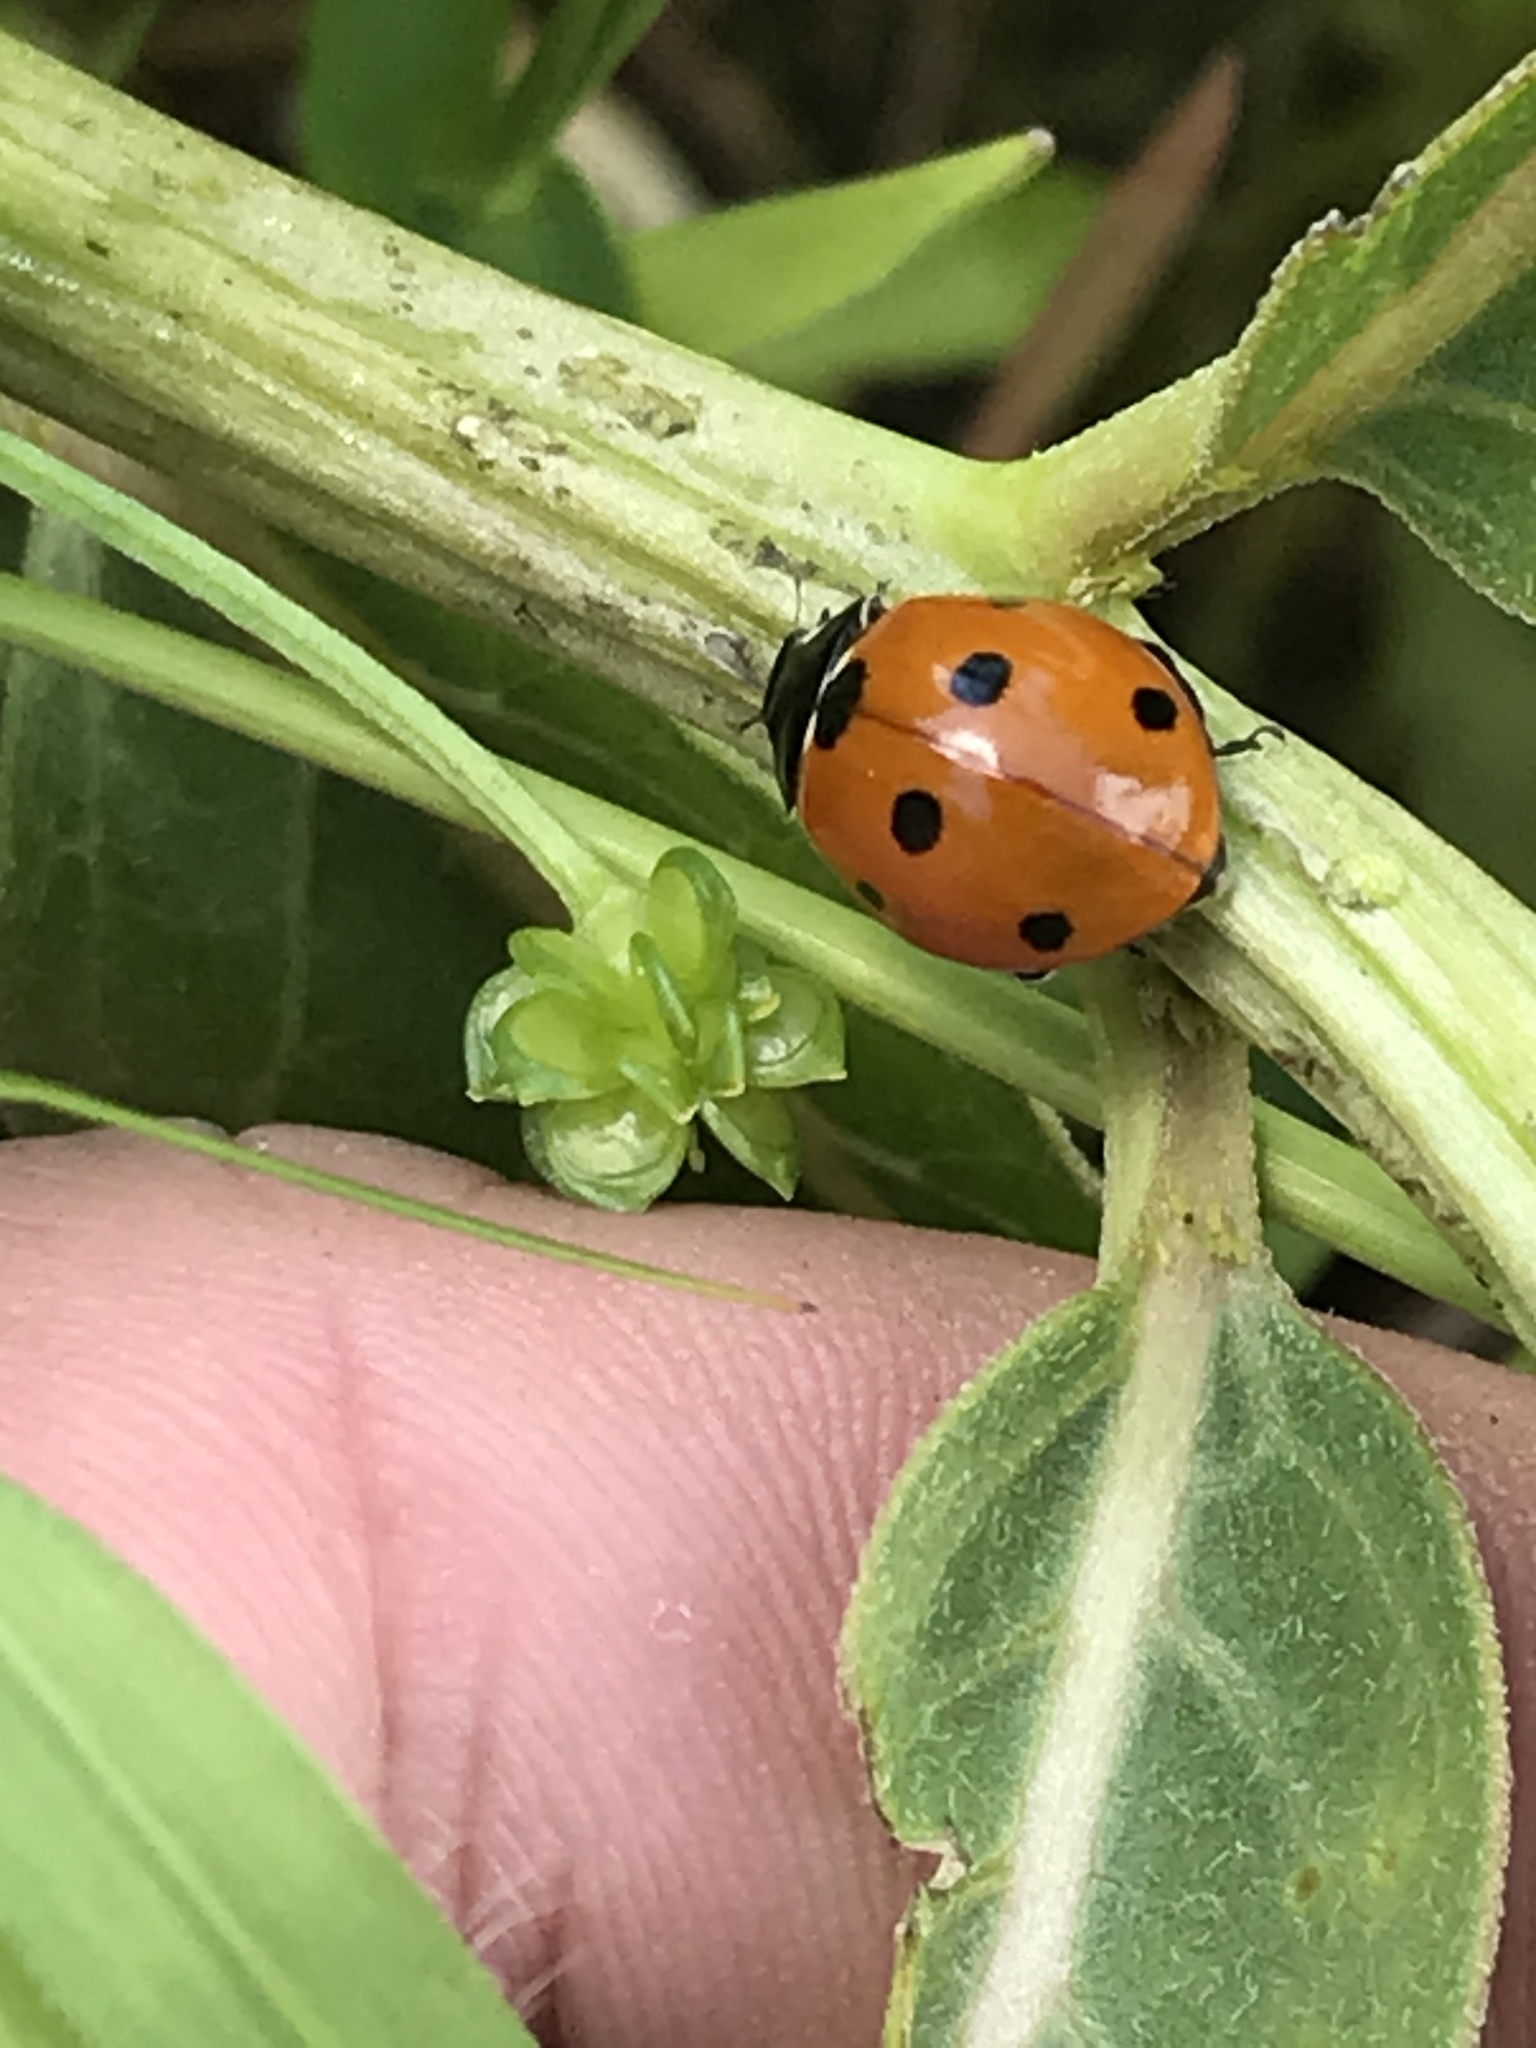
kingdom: Animalia
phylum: Arthropoda
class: Insecta
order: Coleoptera
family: Coccinellidae
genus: Coccinella
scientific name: Coccinella septempunctata
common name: Sevenspotted lady beetle
